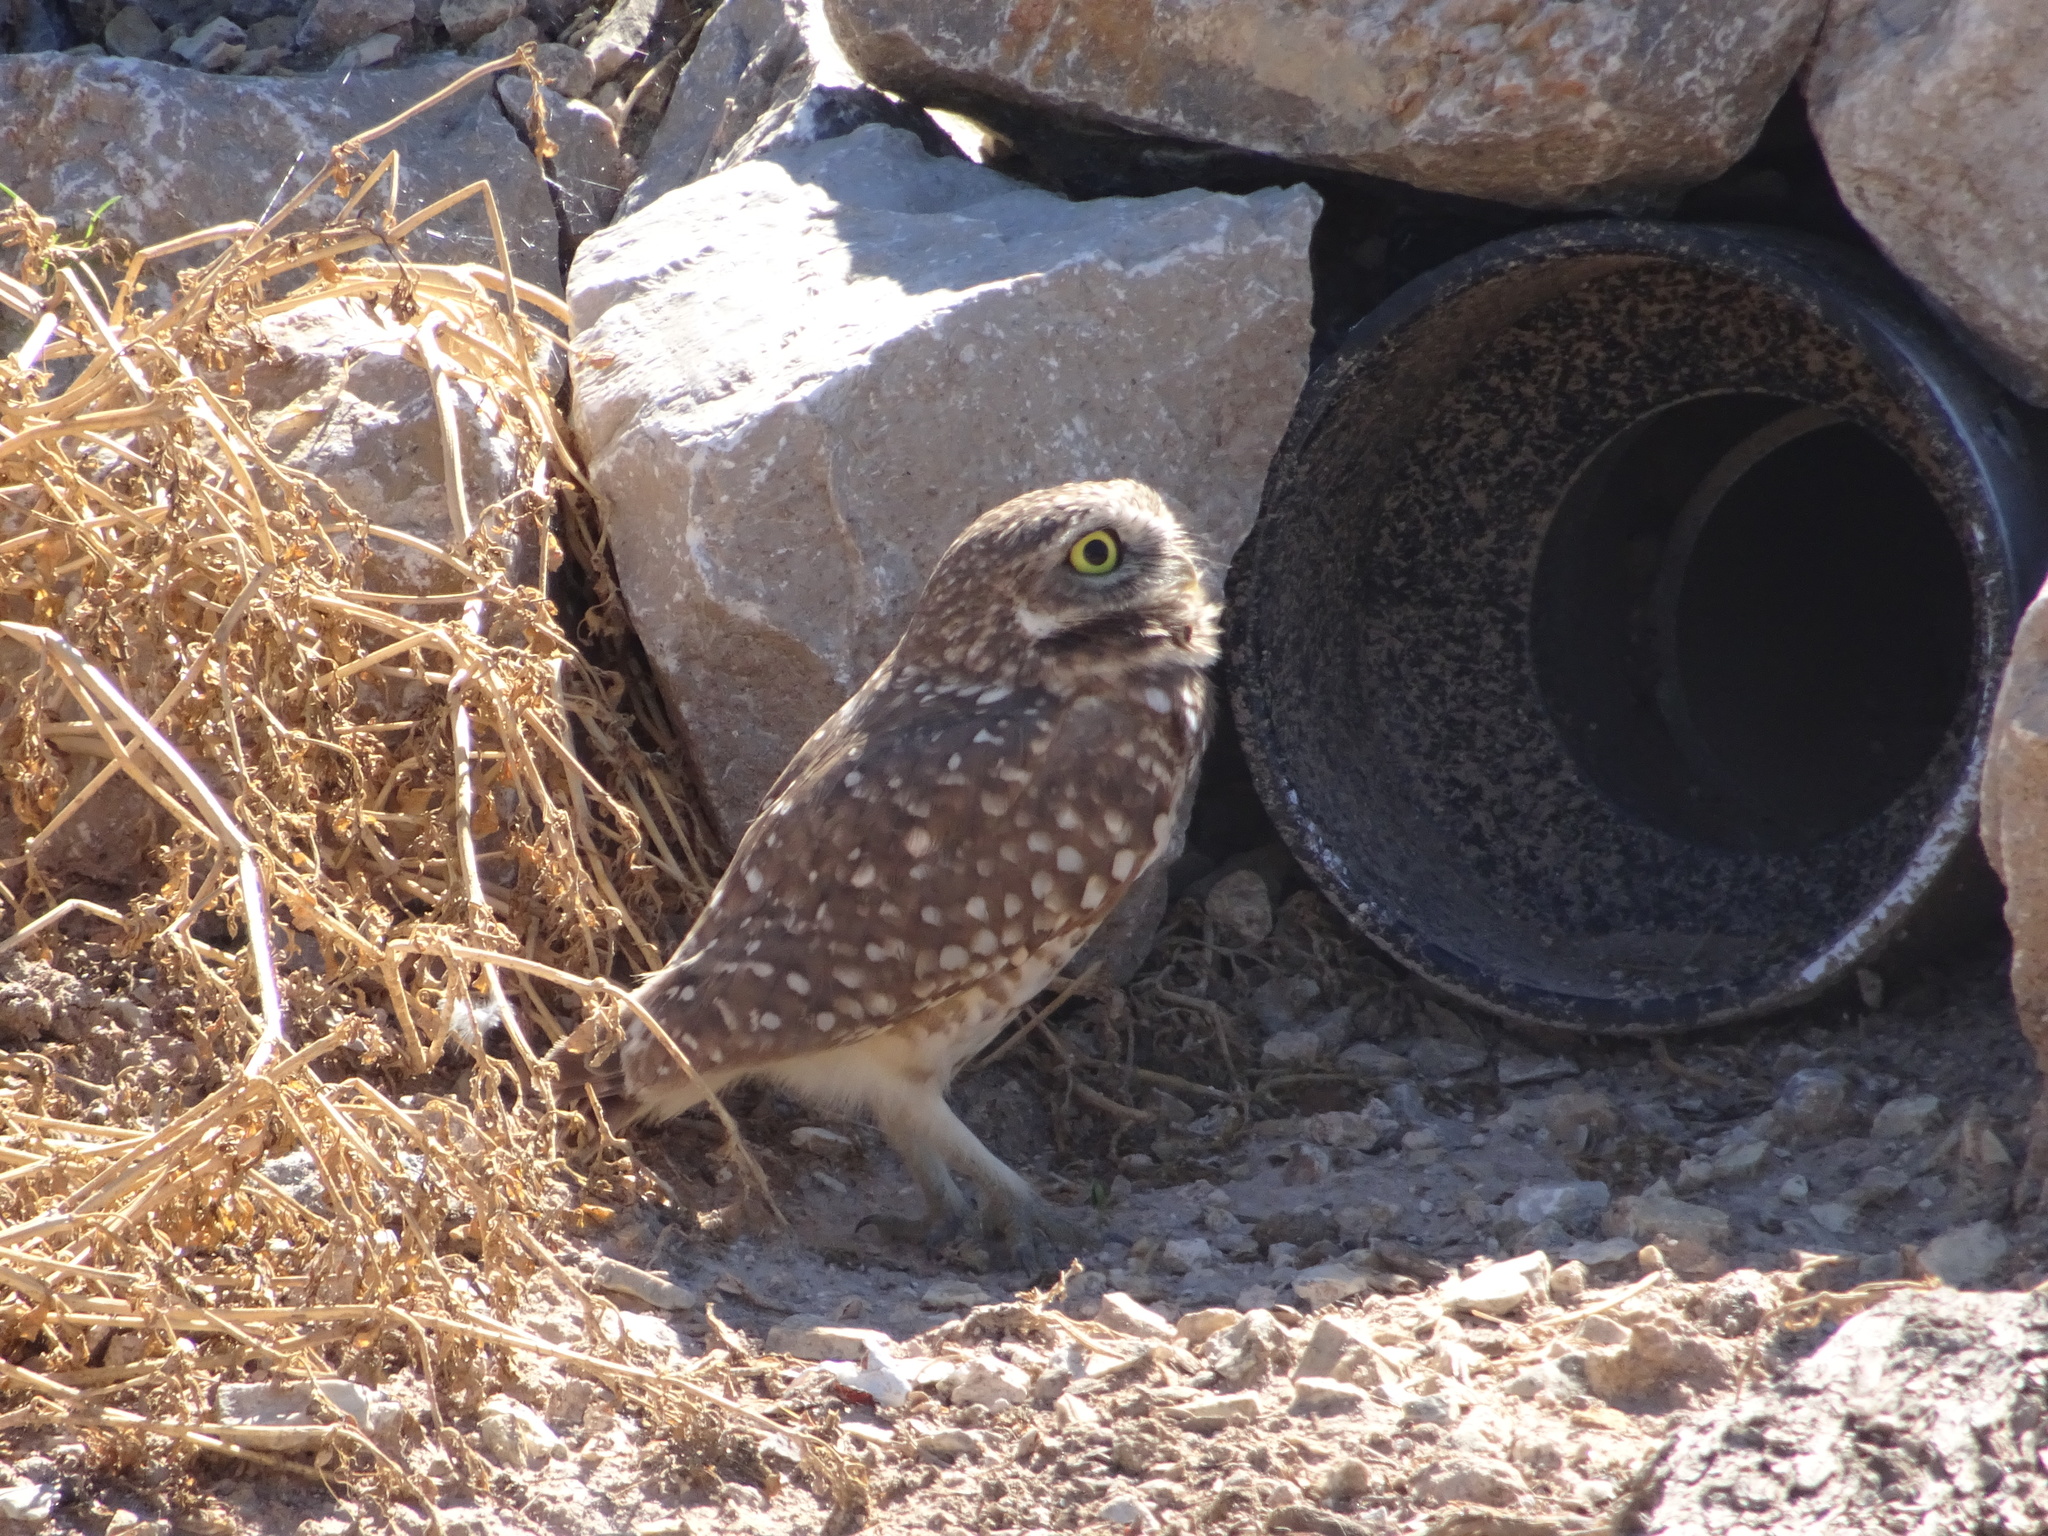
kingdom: Animalia
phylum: Chordata
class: Aves
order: Strigiformes
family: Strigidae
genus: Athene
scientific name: Athene cunicularia
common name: Burrowing owl
